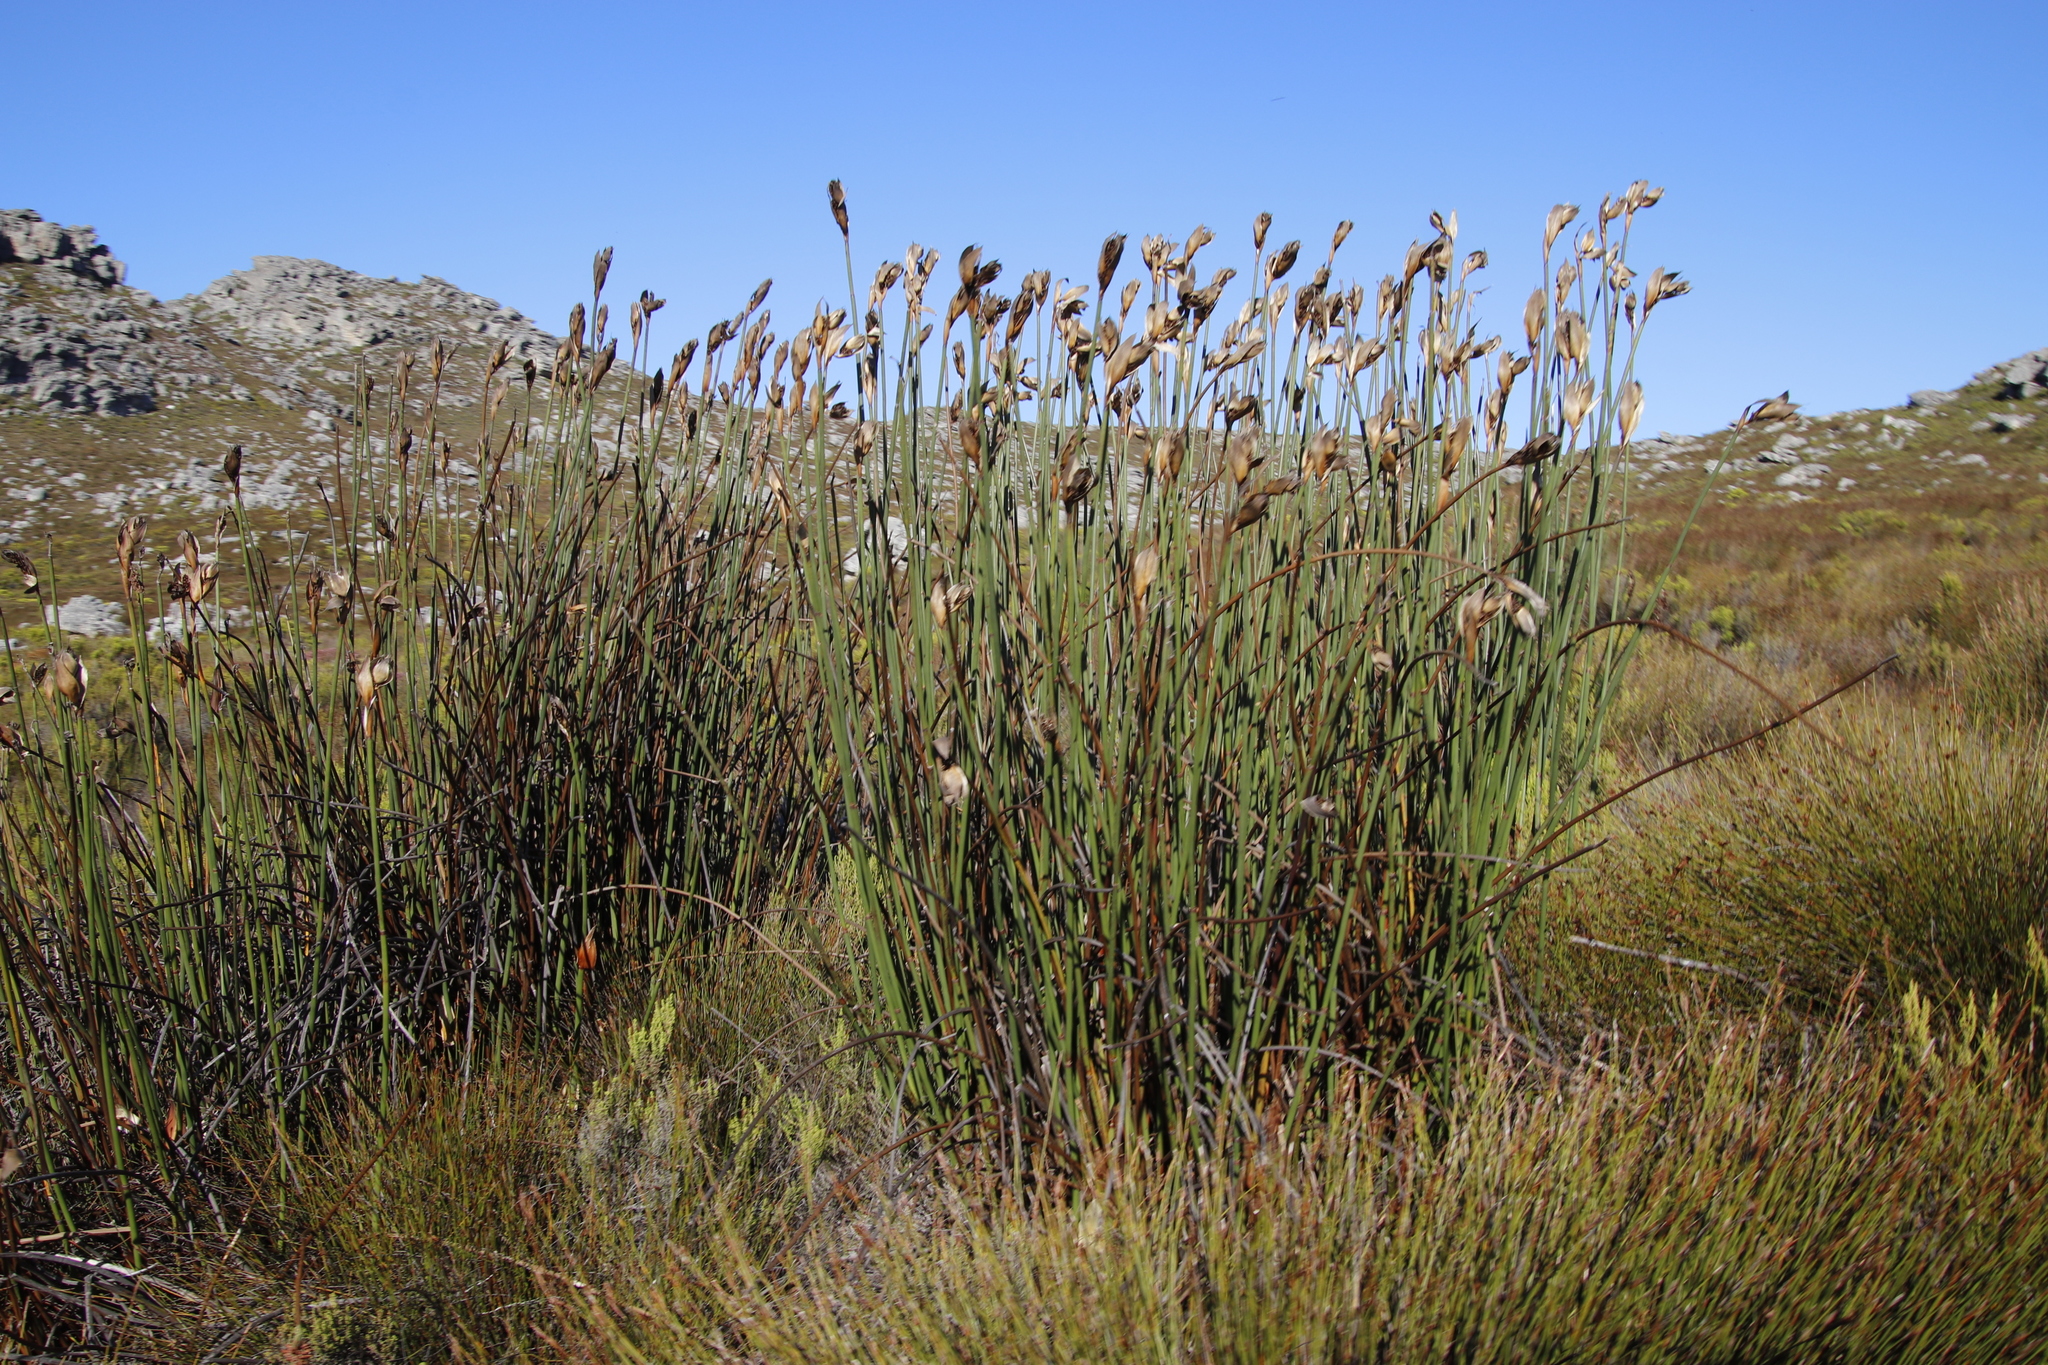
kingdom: Plantae
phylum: Tracheophyta
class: Liliopsida
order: Poales
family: Restionaceae
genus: Elegia
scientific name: Elegia mucronata
